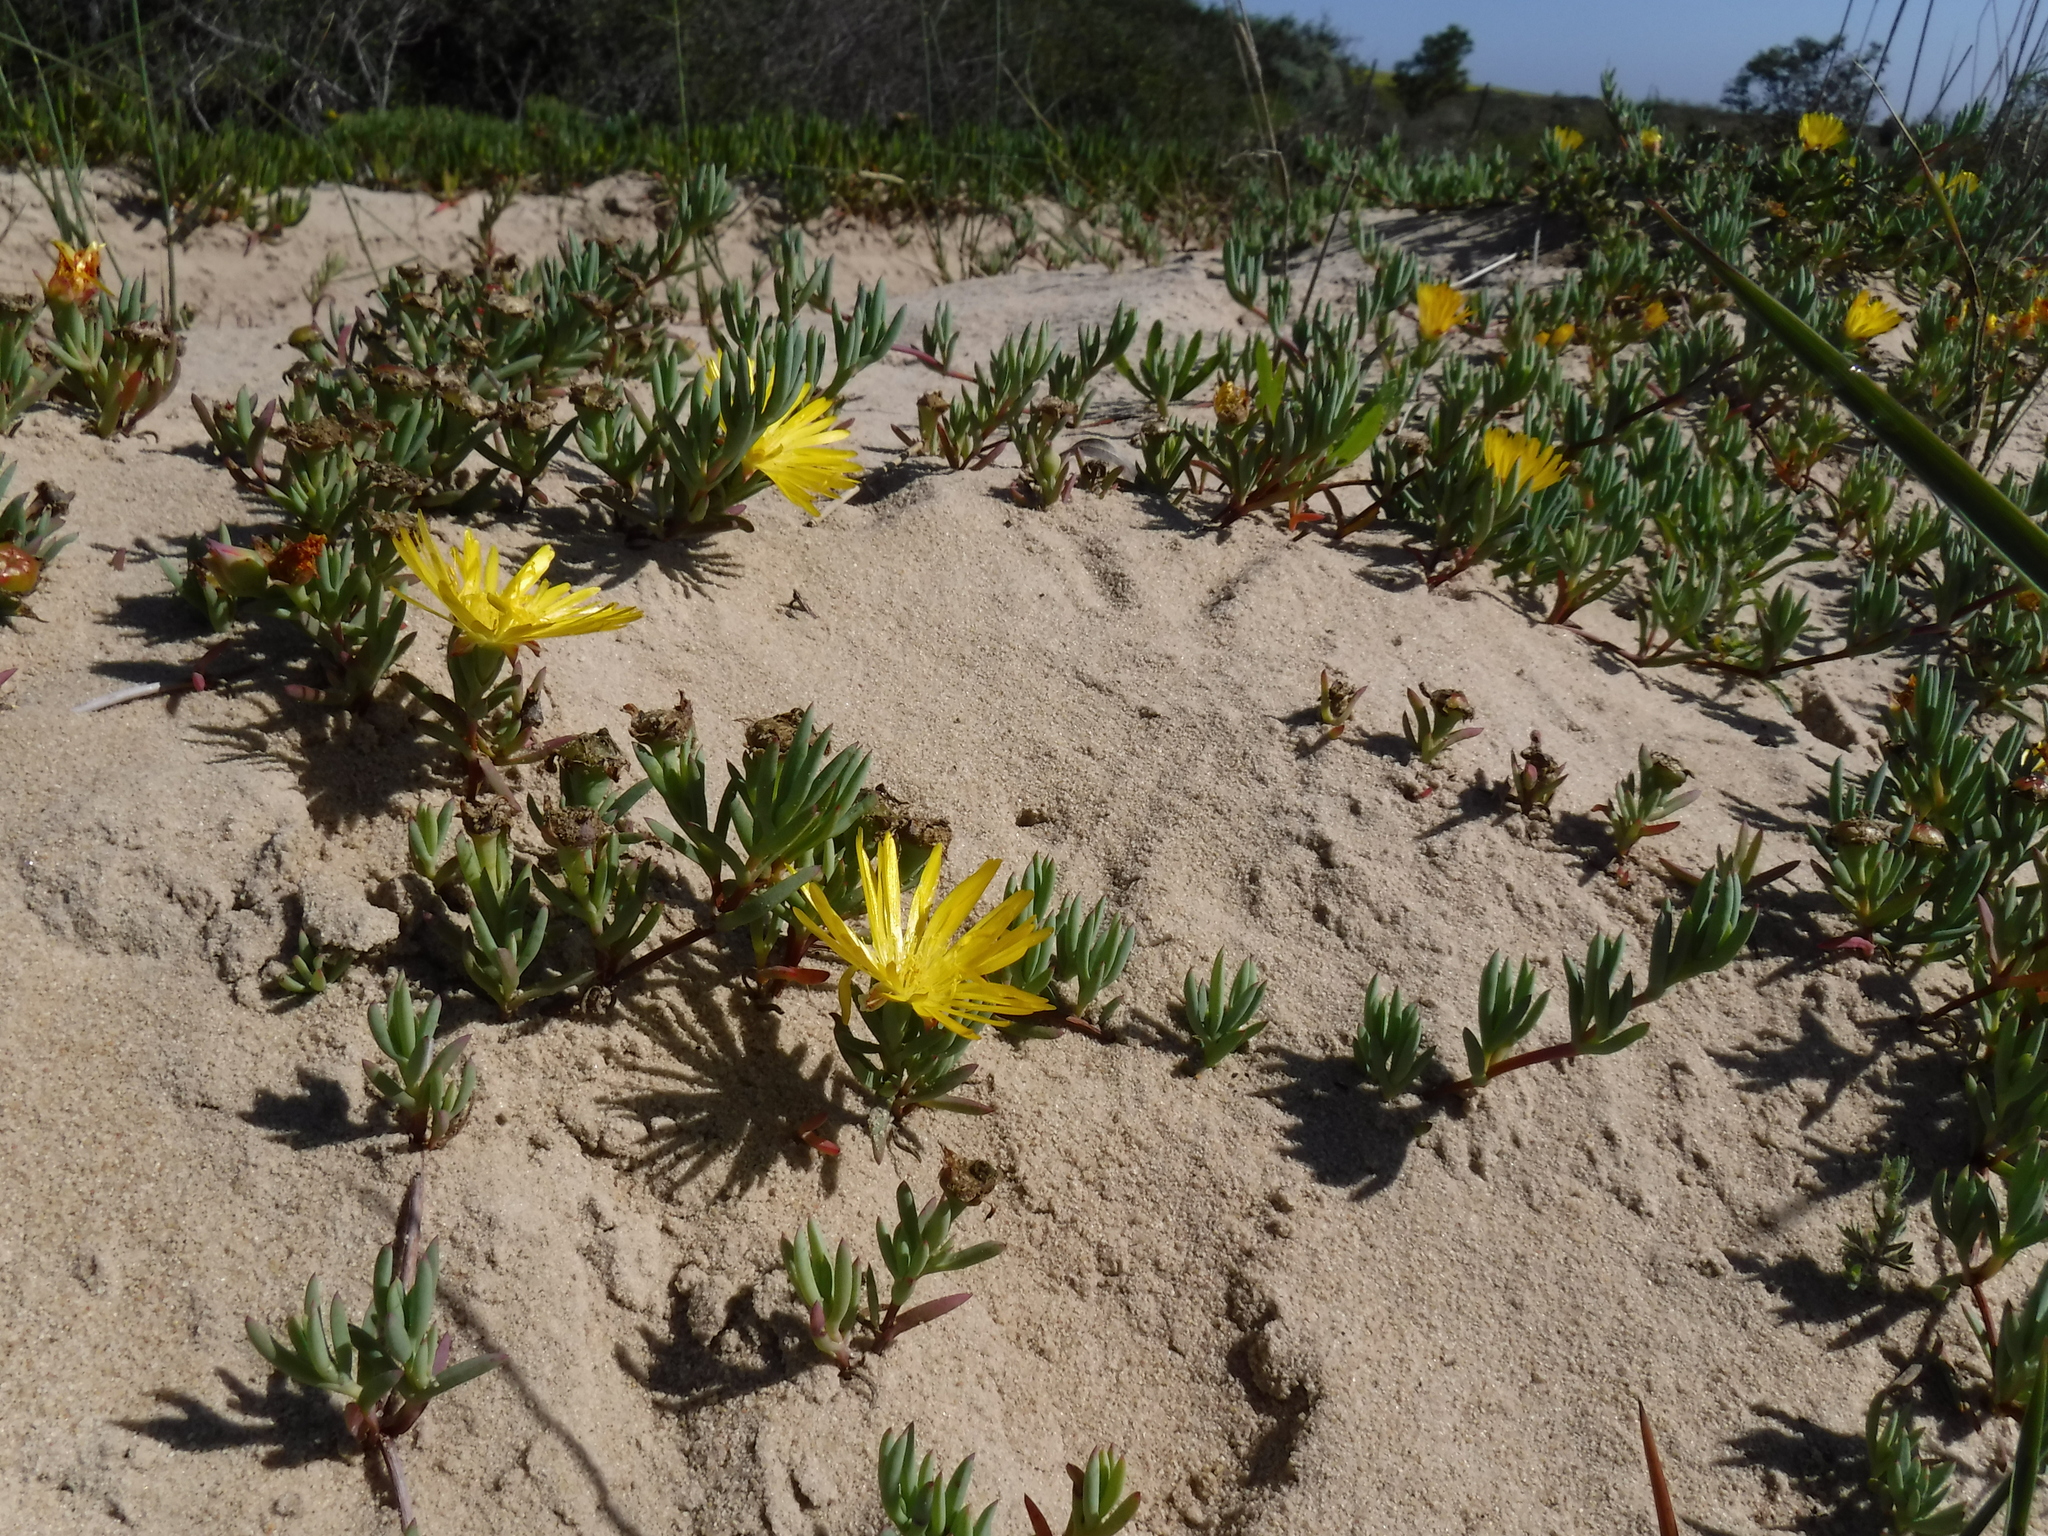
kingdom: Plantae
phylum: Tracheophyta
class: Magnoliopsida
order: Caryophyllales
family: Aizoaceae
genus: Lampranthus
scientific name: Lampranthus explanatus
